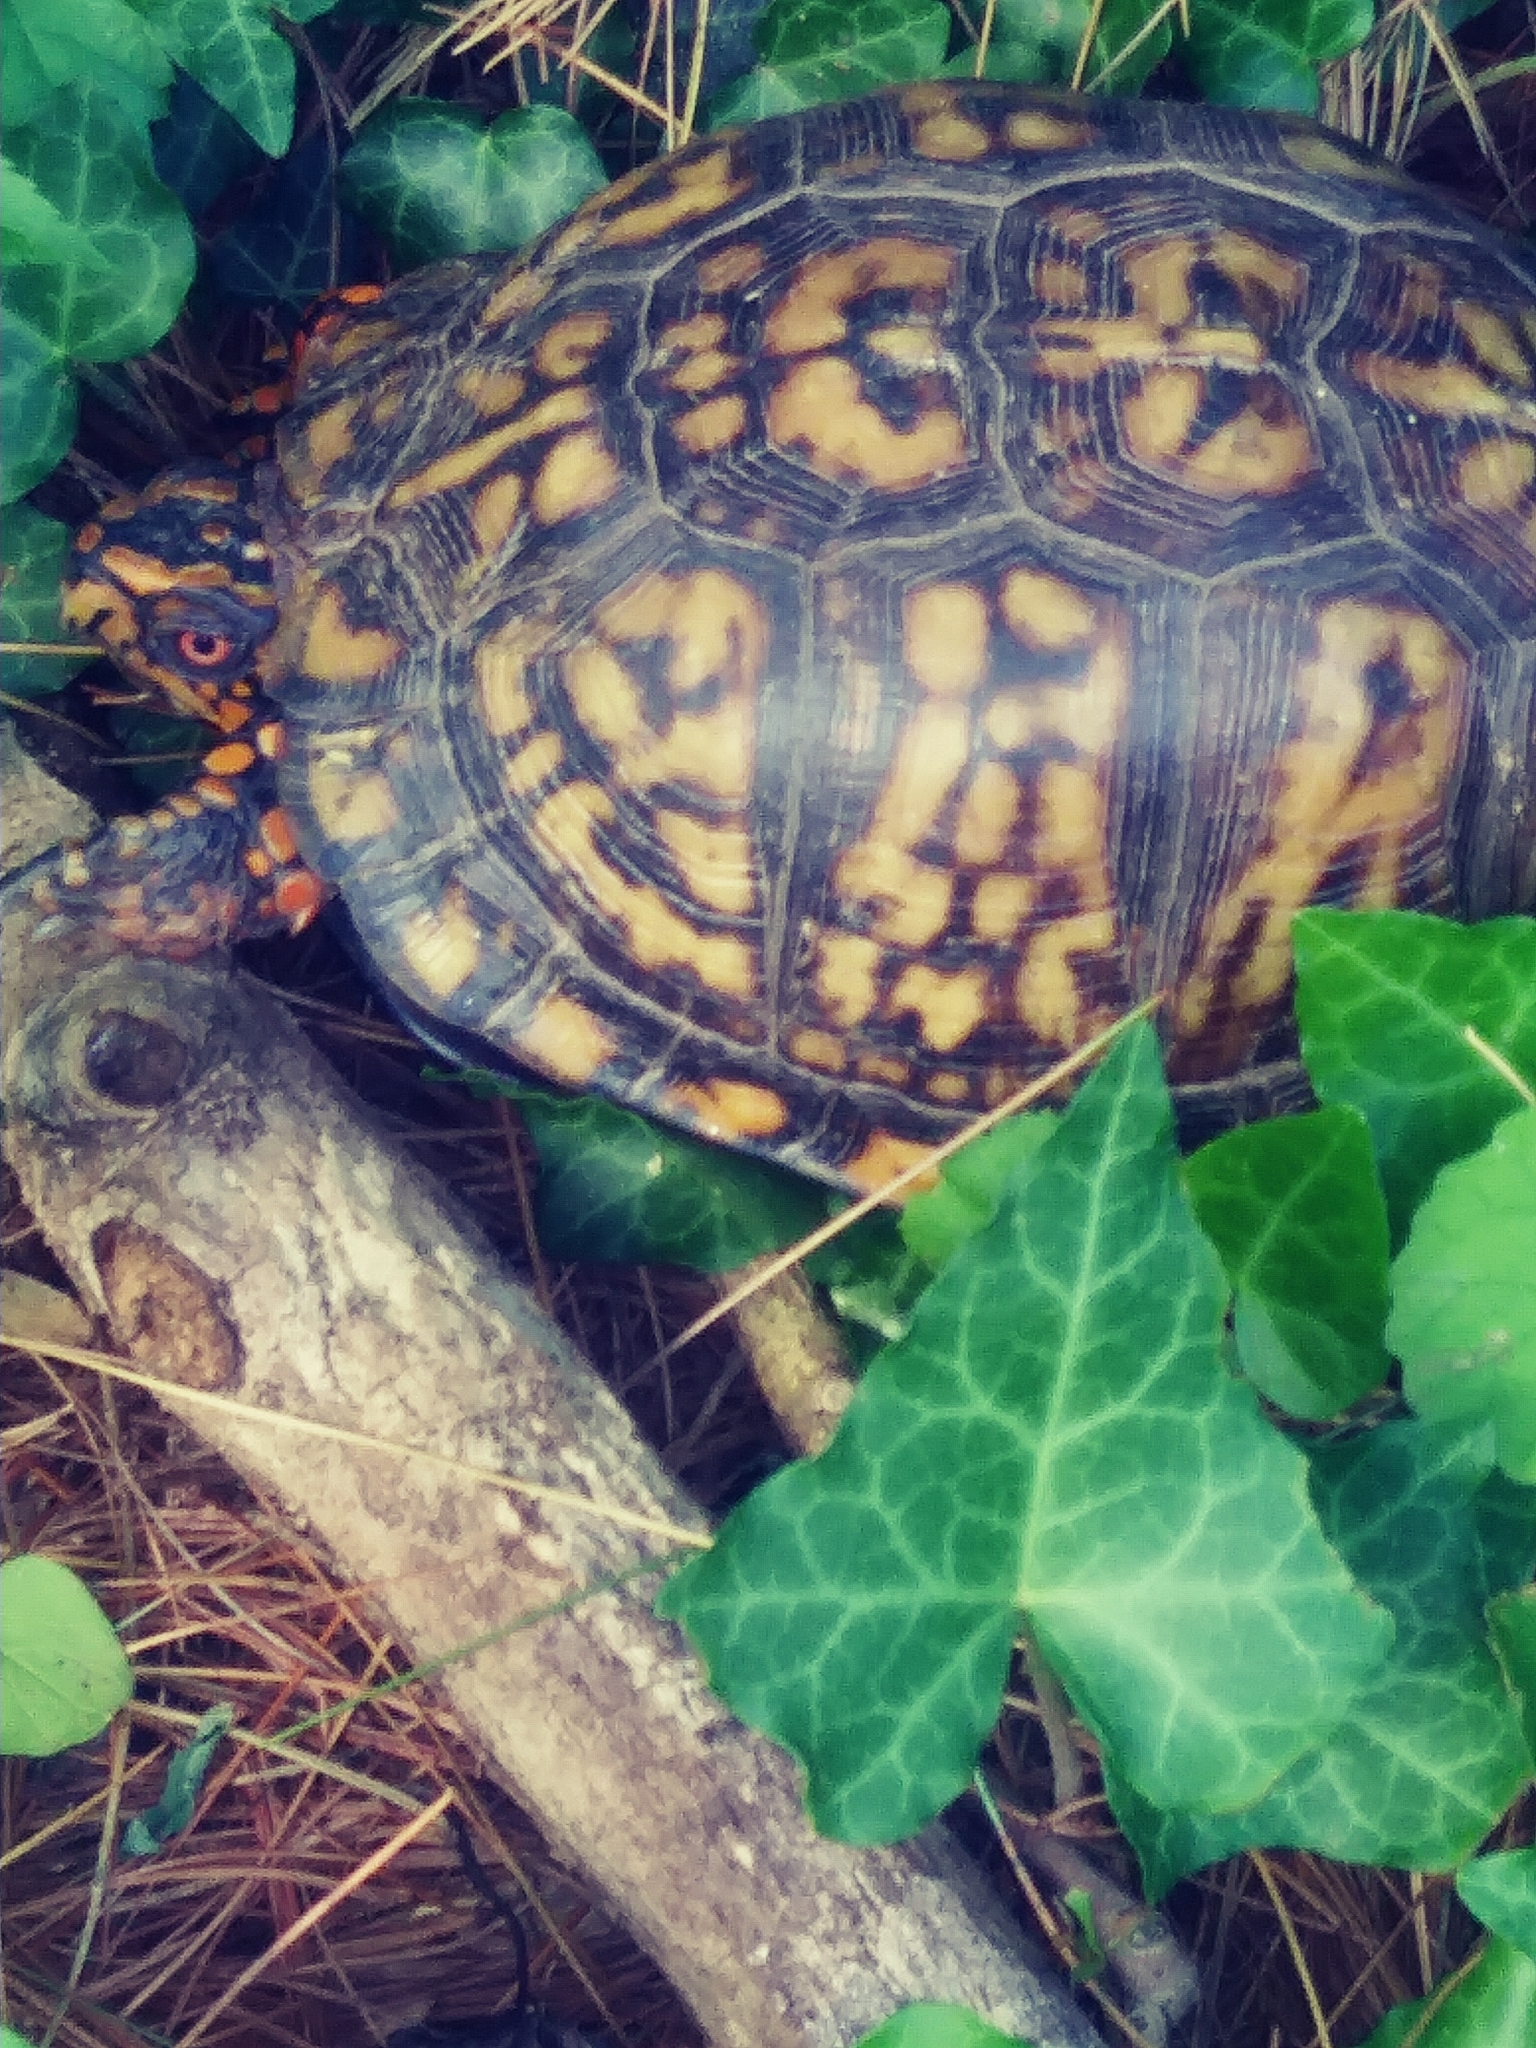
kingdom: Animalia
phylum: Chordata
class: Testudines
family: Emydidae
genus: Terrapene
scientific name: Terrapene carolina
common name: Common box turtle
